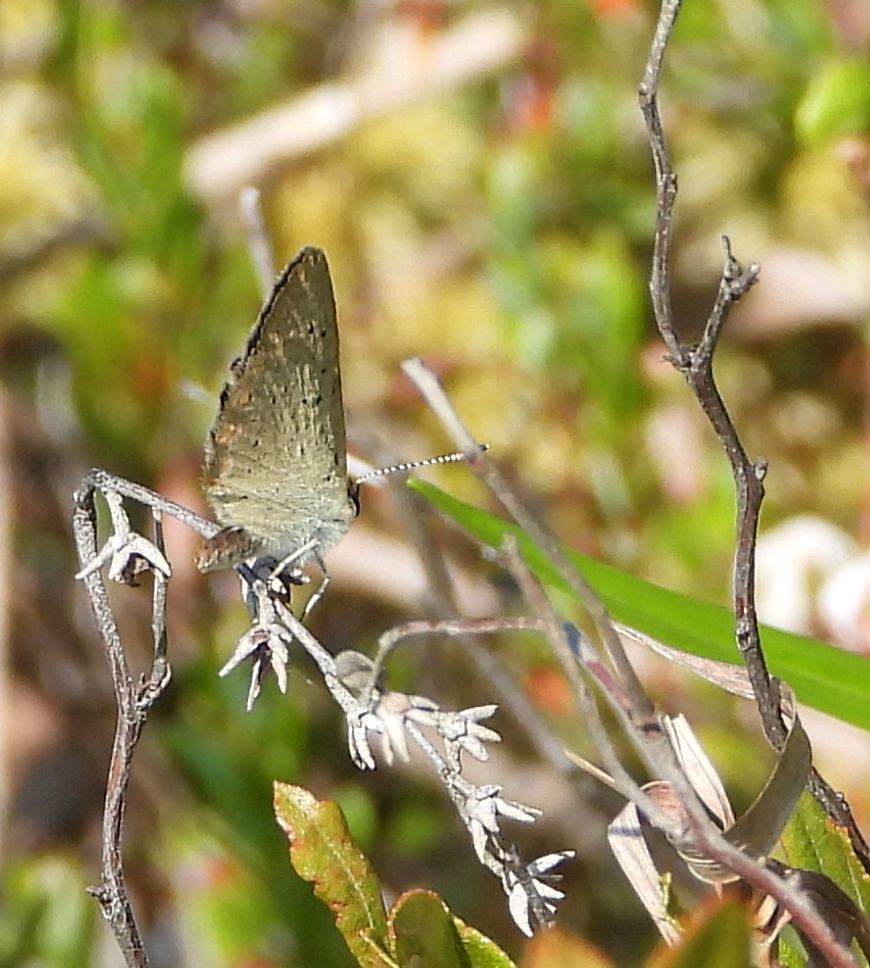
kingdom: Animalia
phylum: Arthropoda
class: Insecta
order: Lepidoptera
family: Lycaenidae
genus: Tharsalea
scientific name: Tharsalea epixanthe
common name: Bog copper
